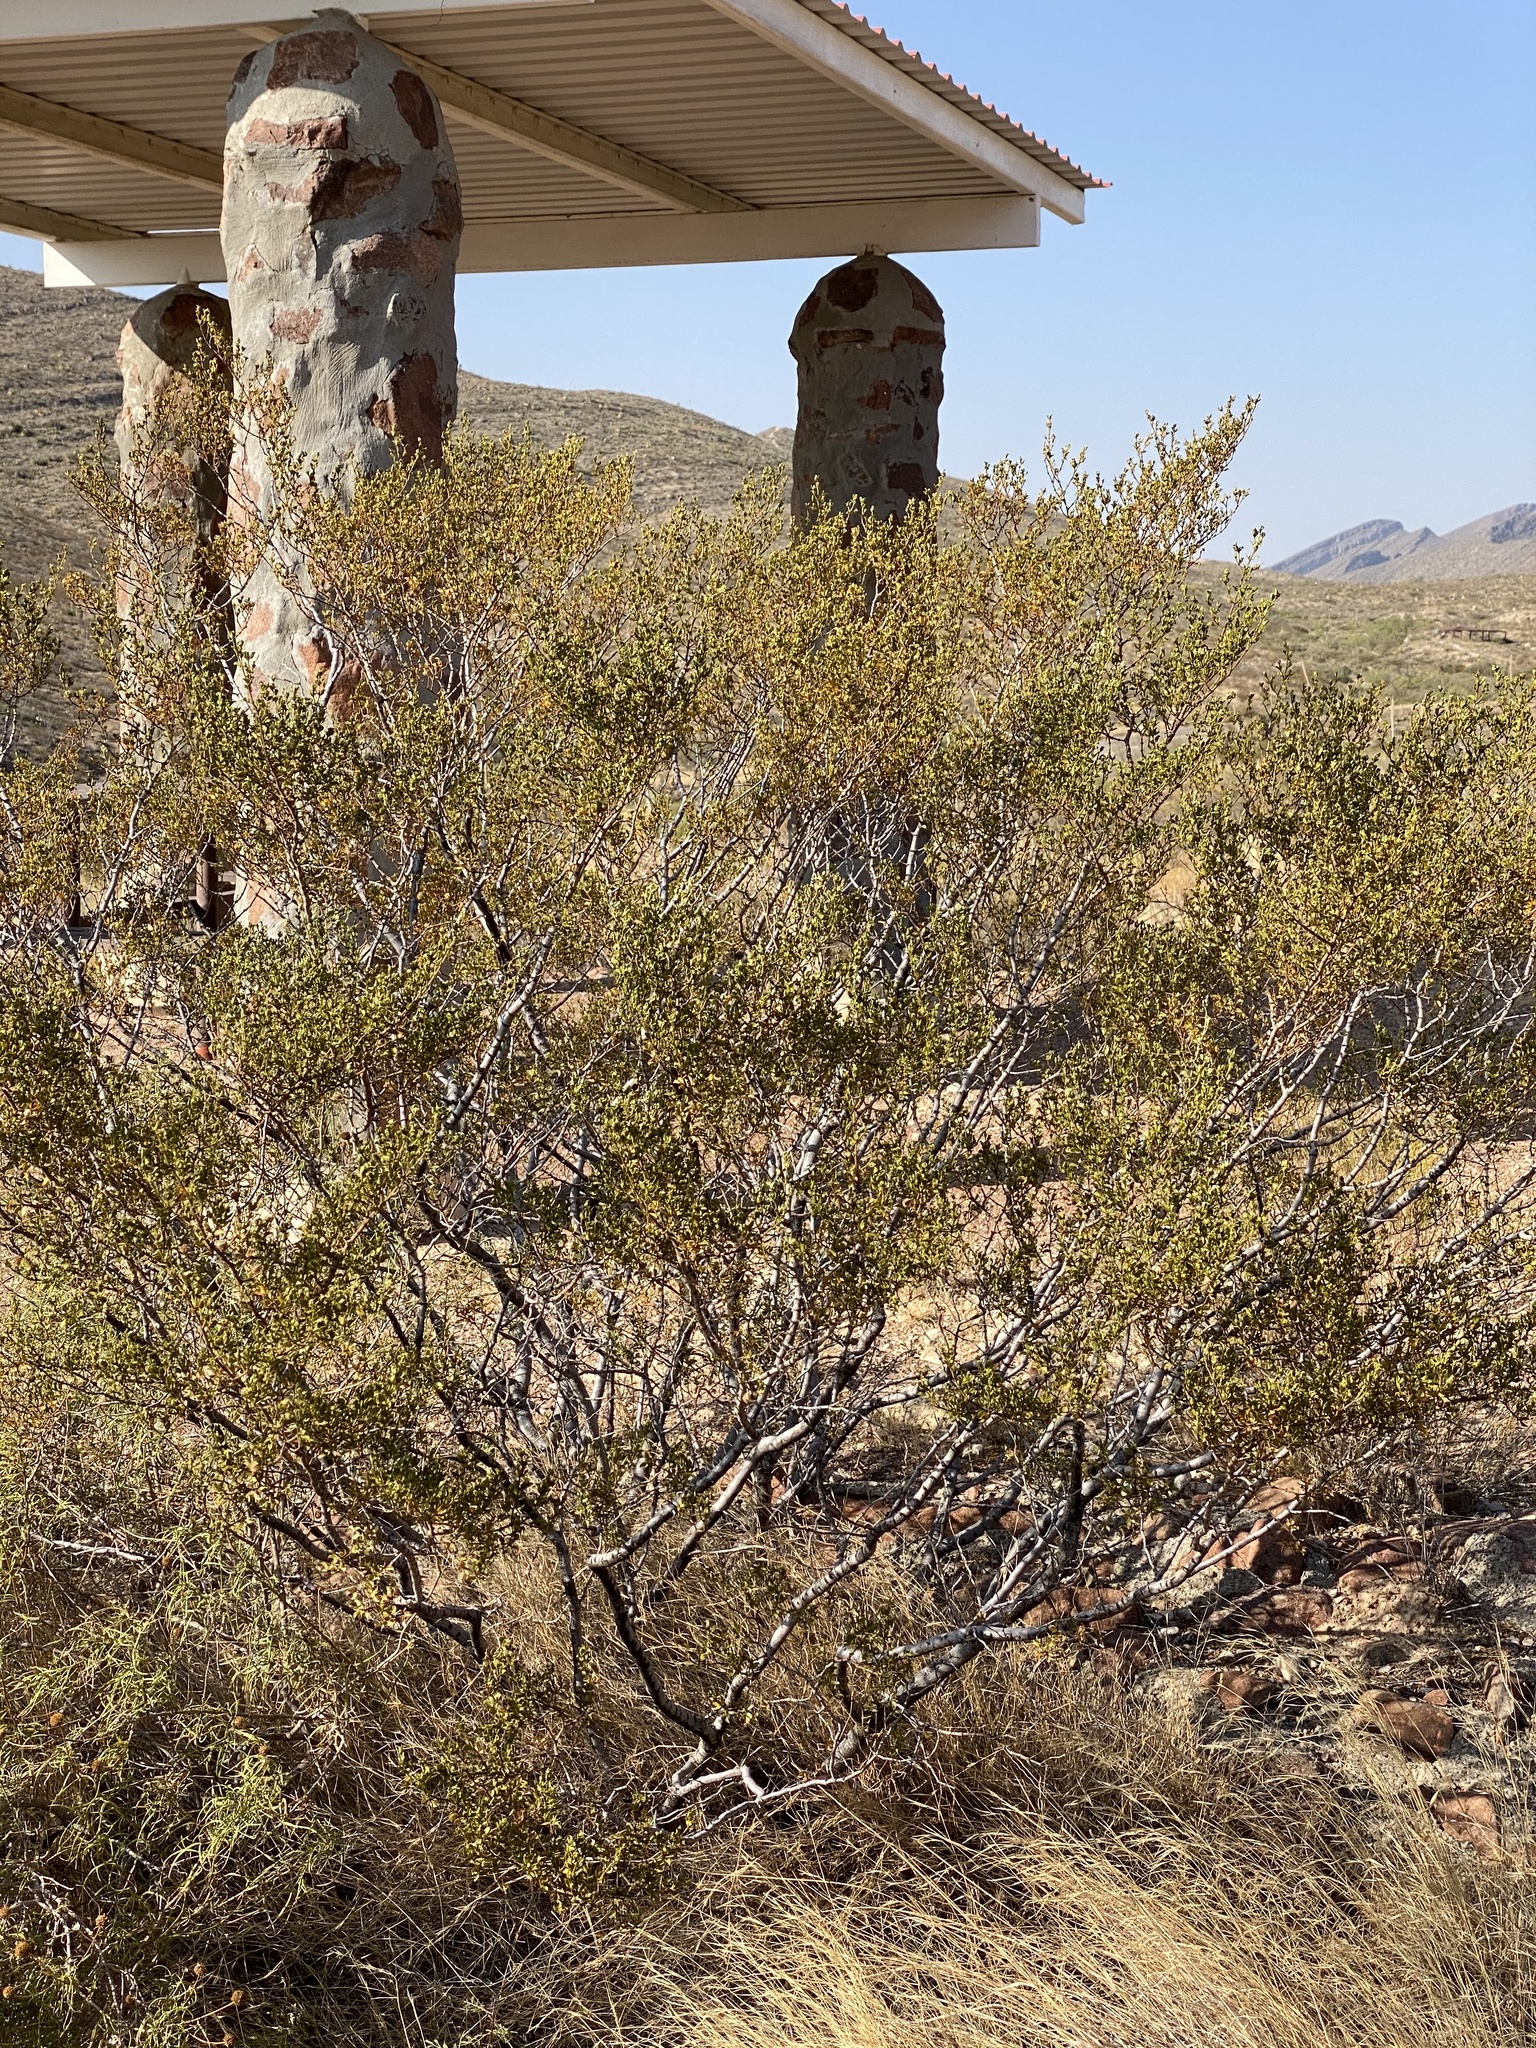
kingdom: Plantae
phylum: Tracheophyta
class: Magnoliopsida
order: Zygophyllales
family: Zygophyllaceae
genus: Larrea
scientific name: Larrea tridentata
